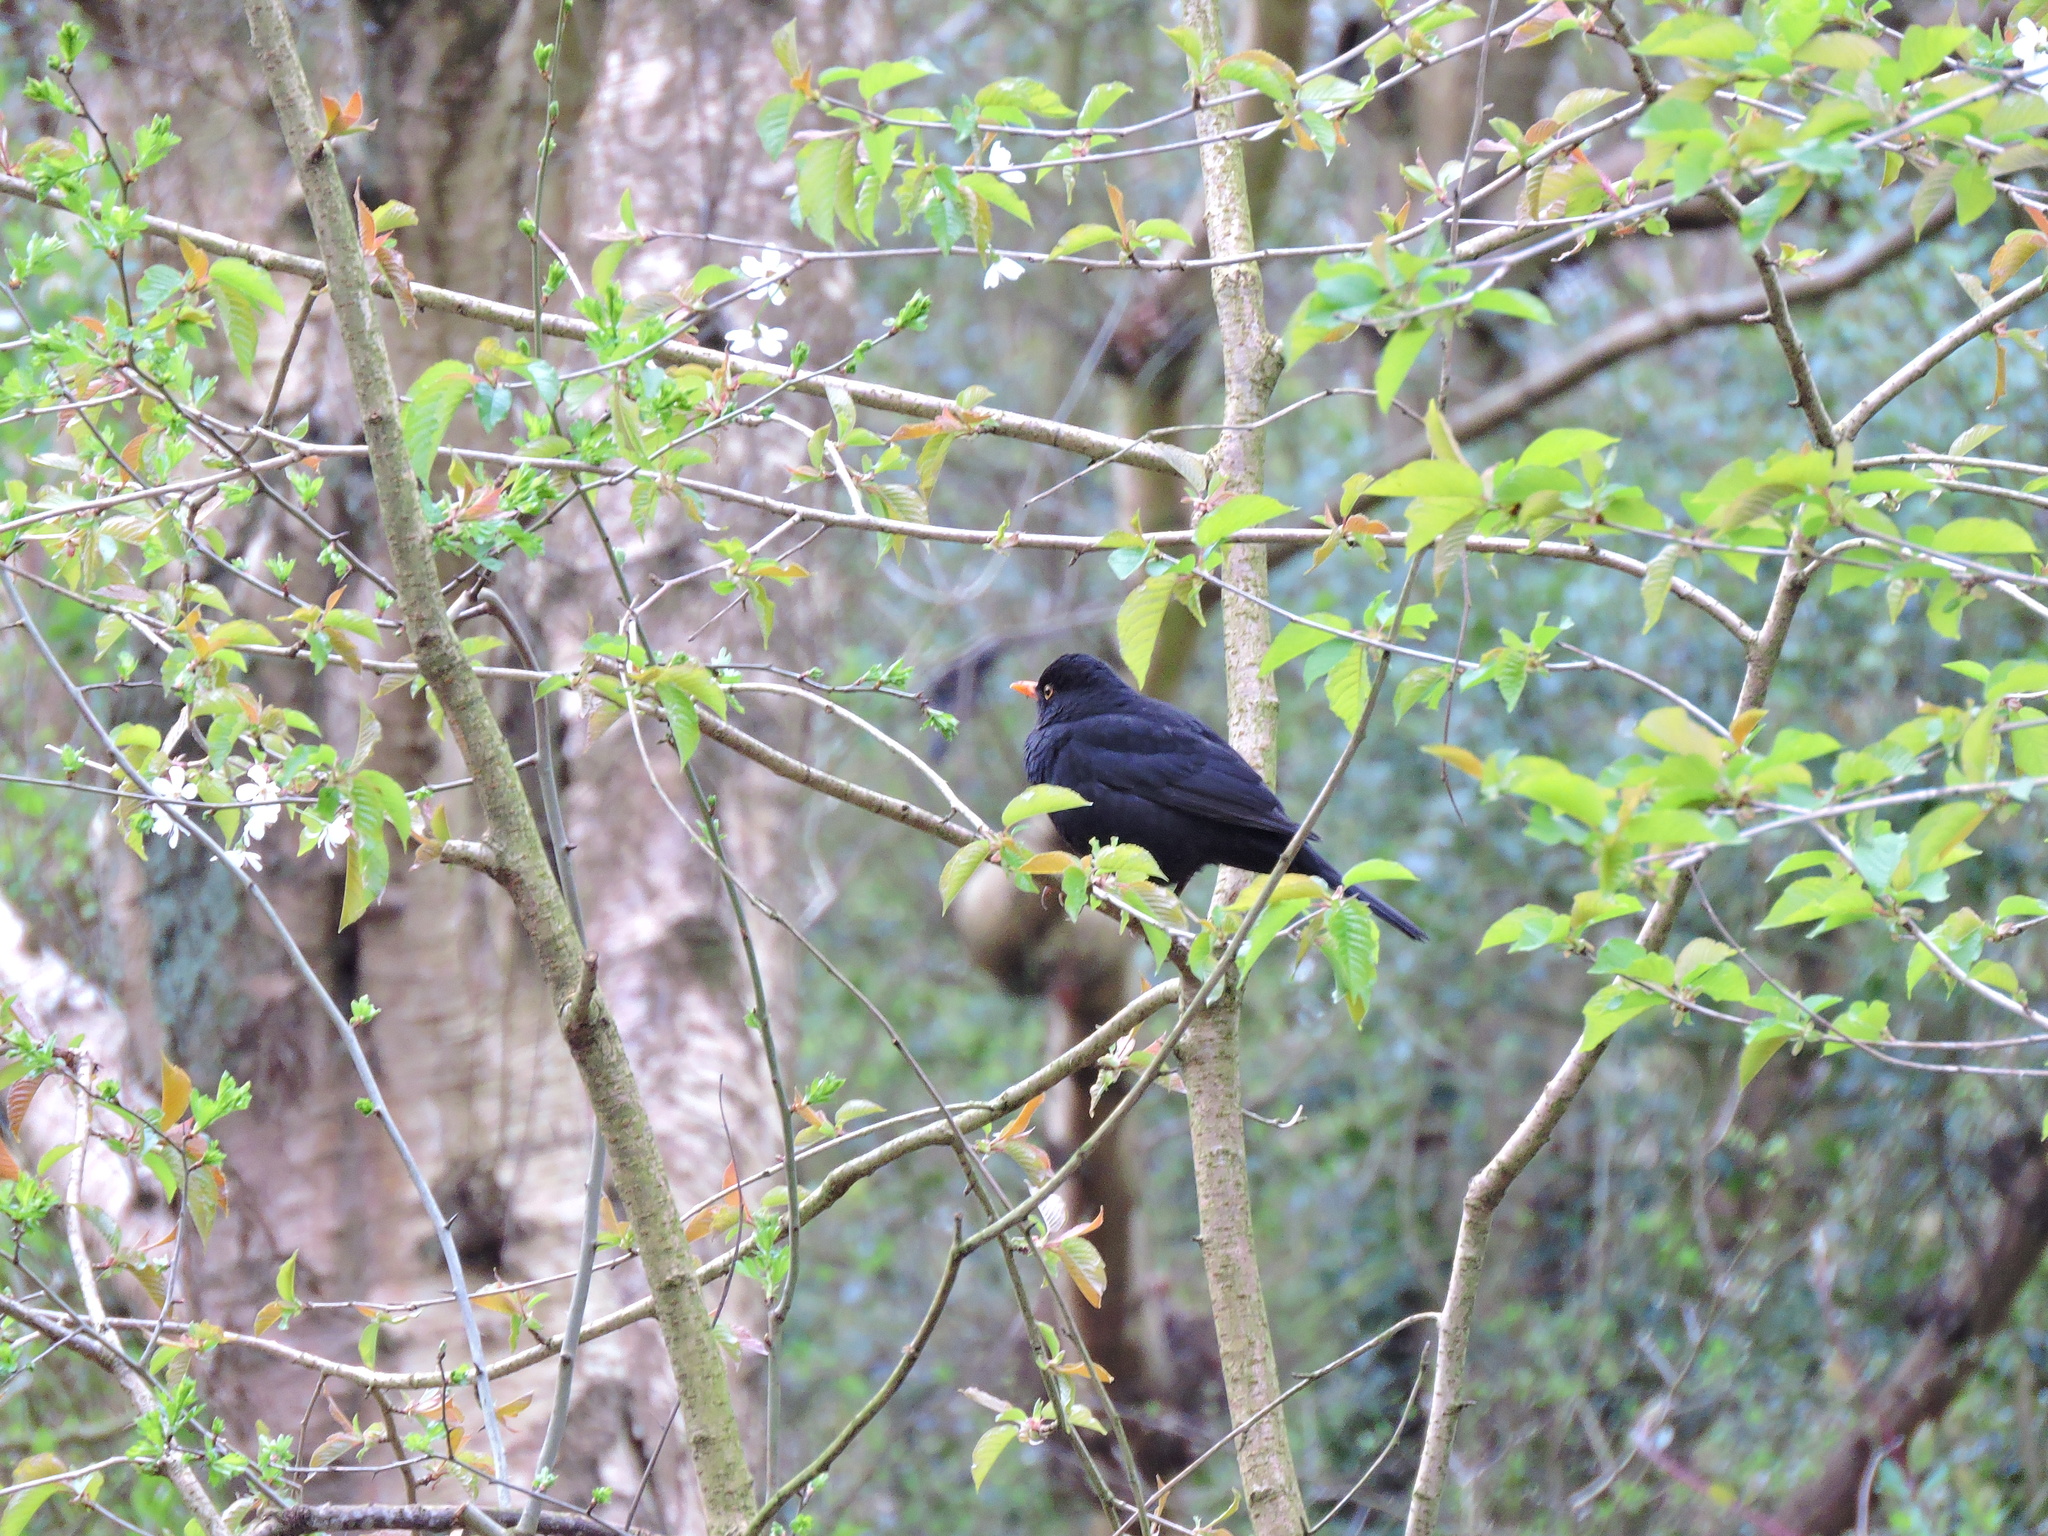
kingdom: Animalia
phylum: Chordata
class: Aves
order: Passeriformes
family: Turdidae
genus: Turdus
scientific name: Turdus merula
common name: Common blackbird
